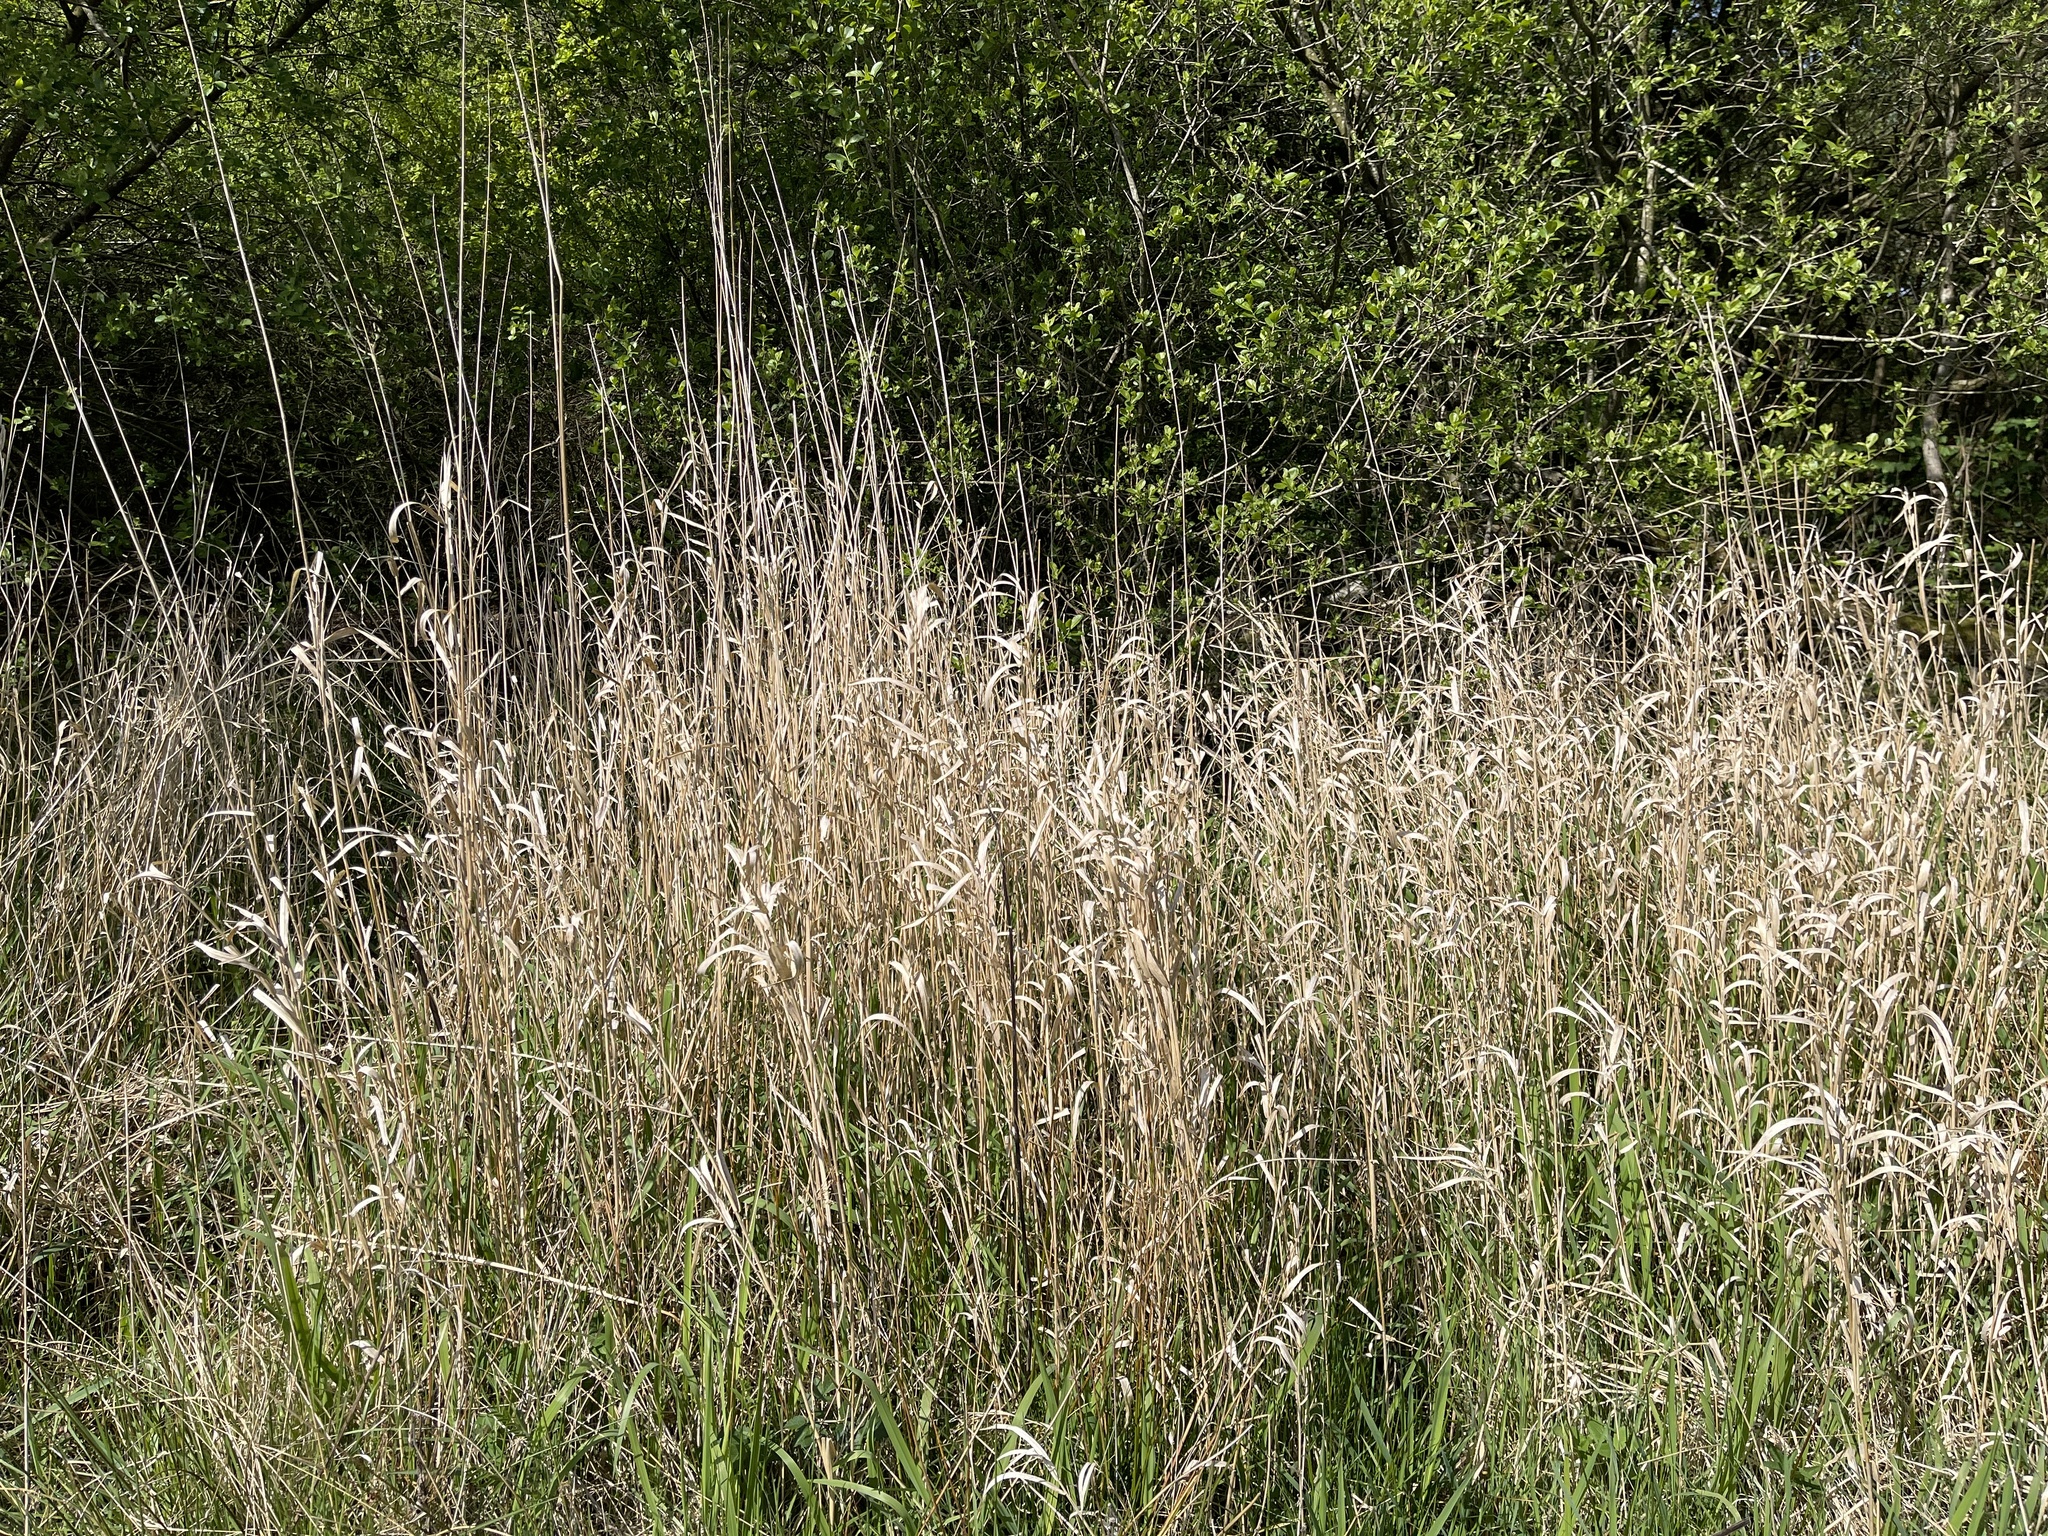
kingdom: Plantae
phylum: Tracheophyta
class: Liliopsida
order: Poales
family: Poaceae
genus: Phalaris
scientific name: Phalaris arundinacea
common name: Reed canary-grass
